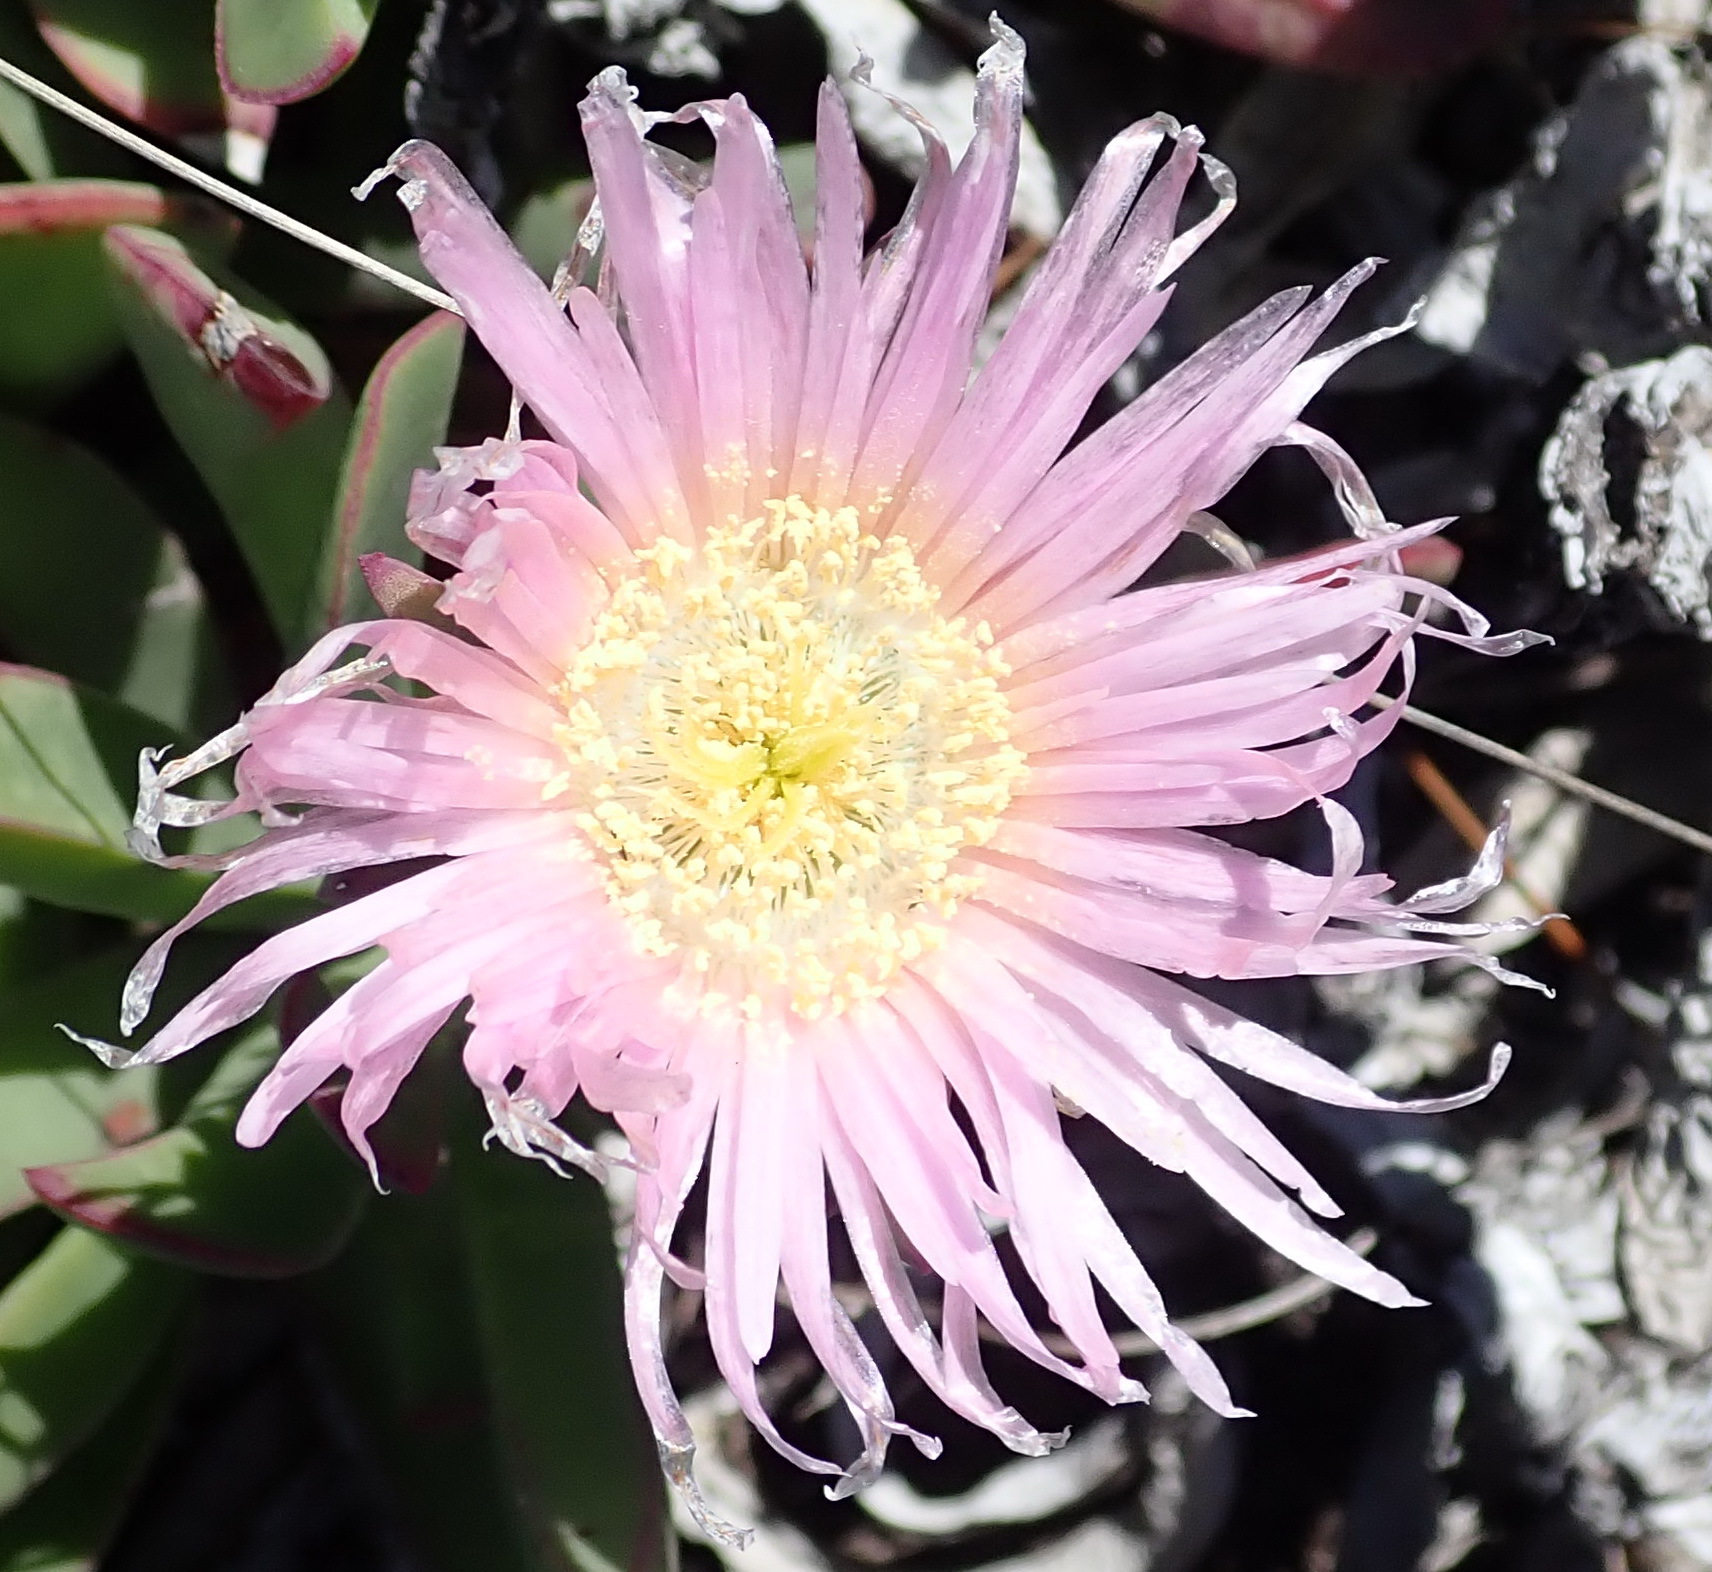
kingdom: Plantae
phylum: Tracheophyta
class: Magnoliopsida
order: Caryophyllales
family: Aizoaceae
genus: Carpobrotus
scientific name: Carpobrotus mellei
